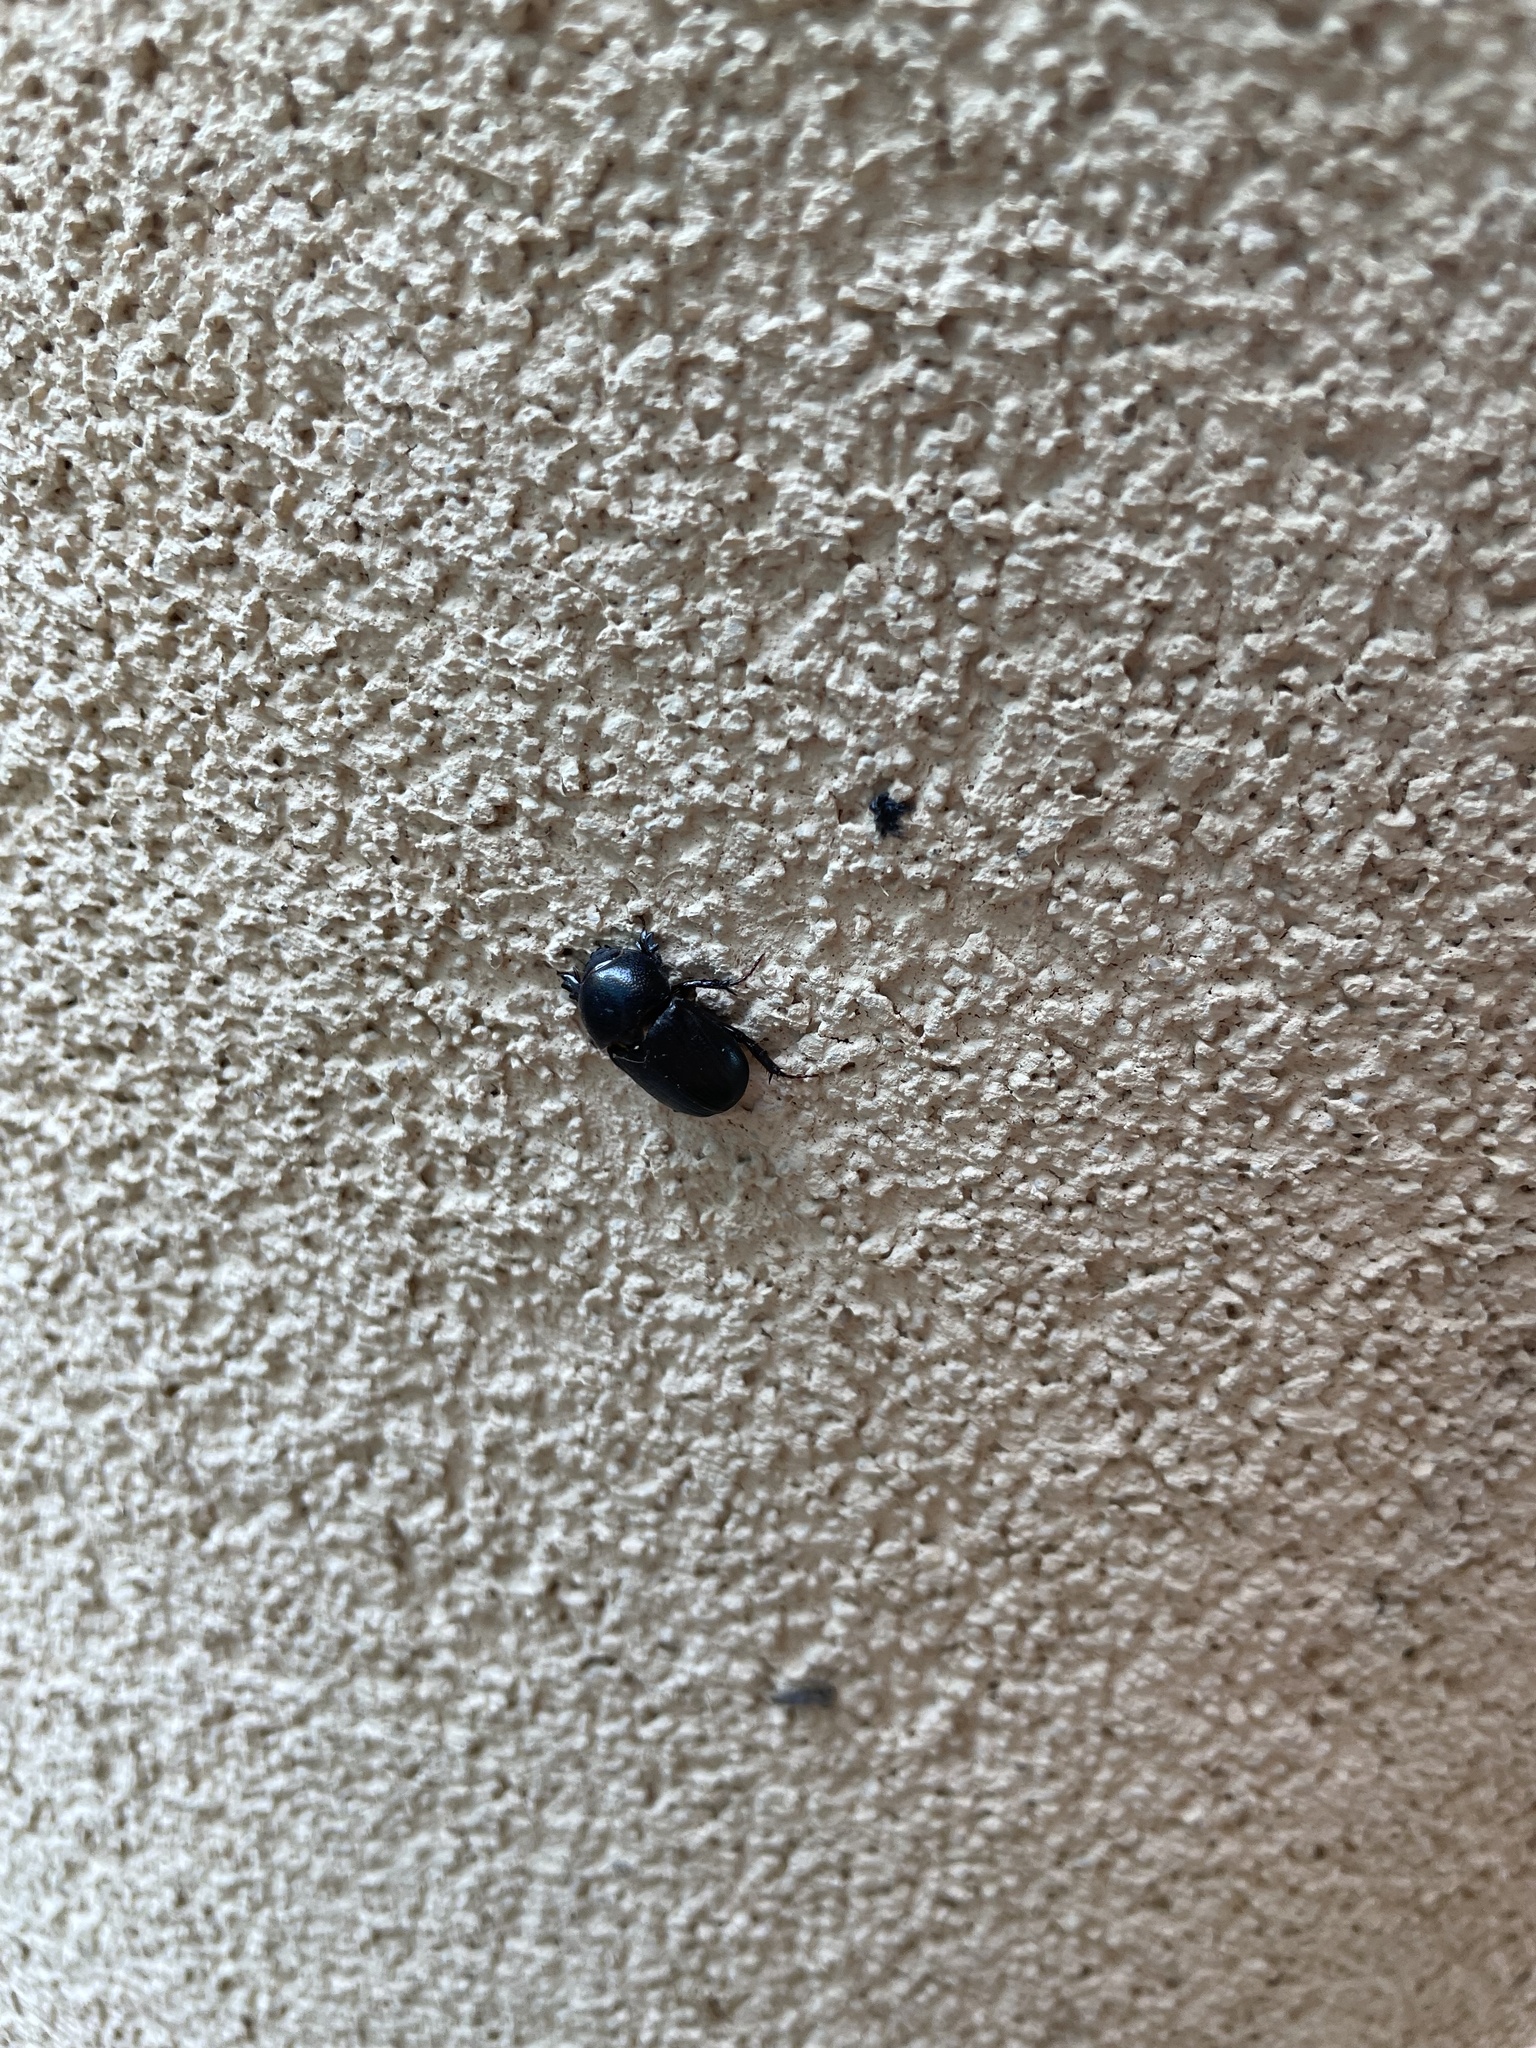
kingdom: Animalia
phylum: Arthropoda
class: Insecta
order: Coleoptera
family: Scarabaeidae
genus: Euetheola
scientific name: Euetheola humilis
